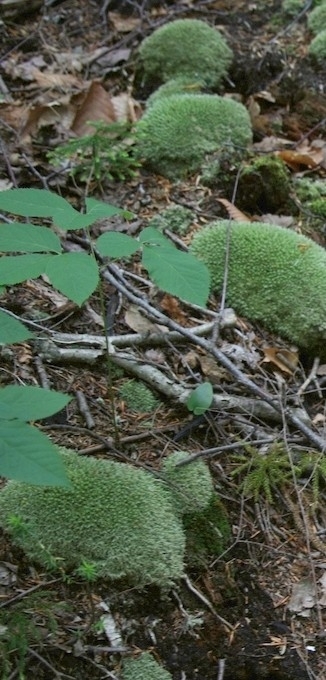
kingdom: Plantae
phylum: Tracheophyta
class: Magnoliopsida
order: Apiales
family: Araliaceae
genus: Aralia
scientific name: Aralia nudicaulis
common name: Wild sarsaparilla
